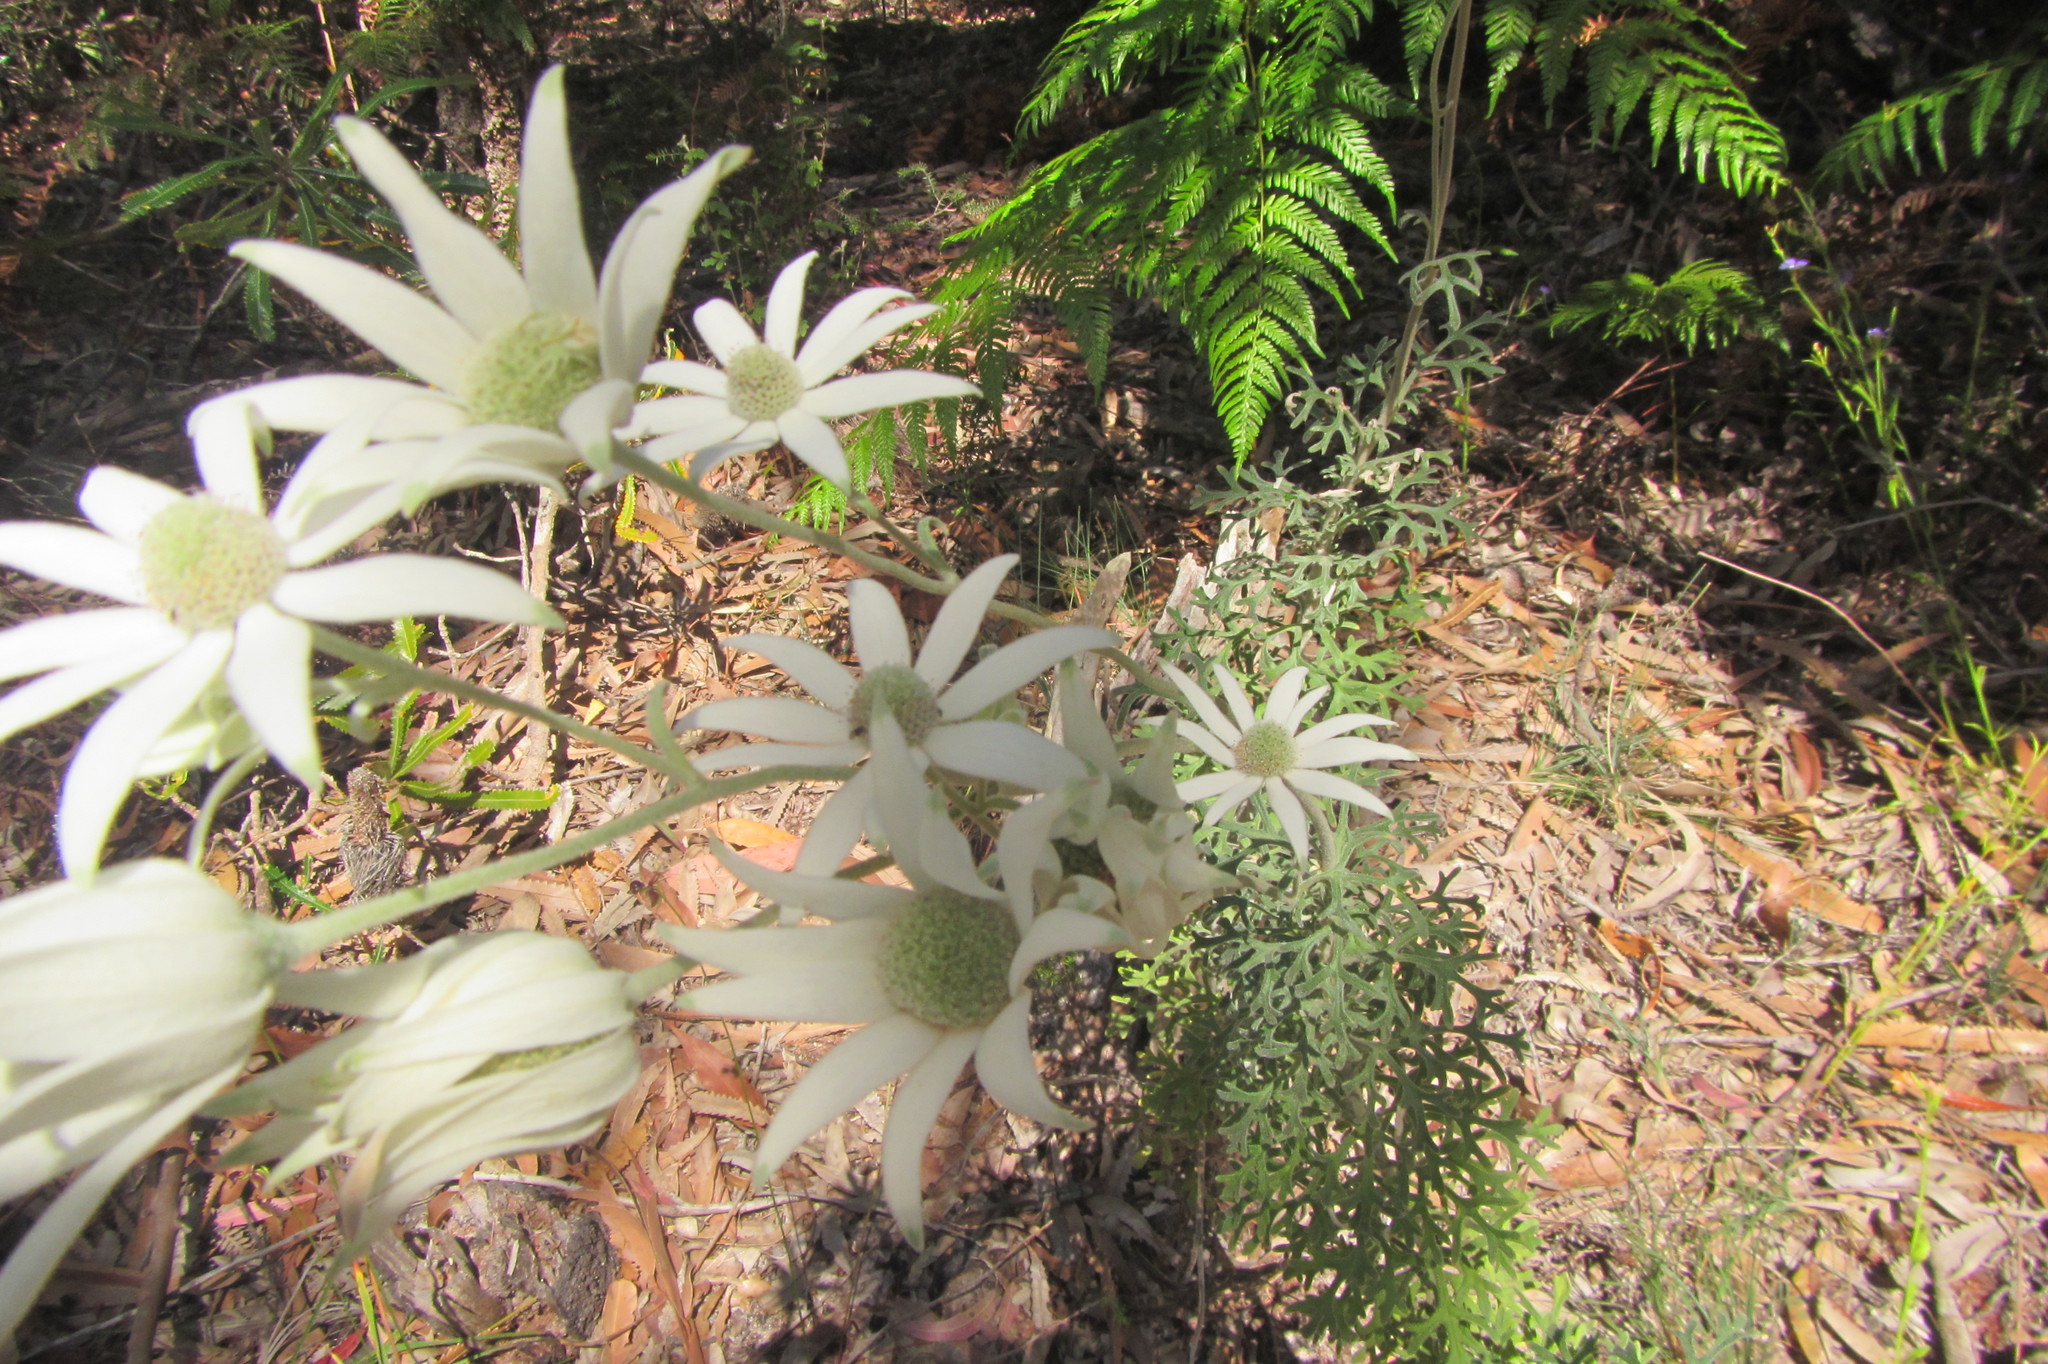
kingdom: Plantae
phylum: Tracheophyta
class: Magnoliopsida
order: Apiales
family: Apiaceae
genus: Actinotus
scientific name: Actinotus helianthi
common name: Flannel-flower
